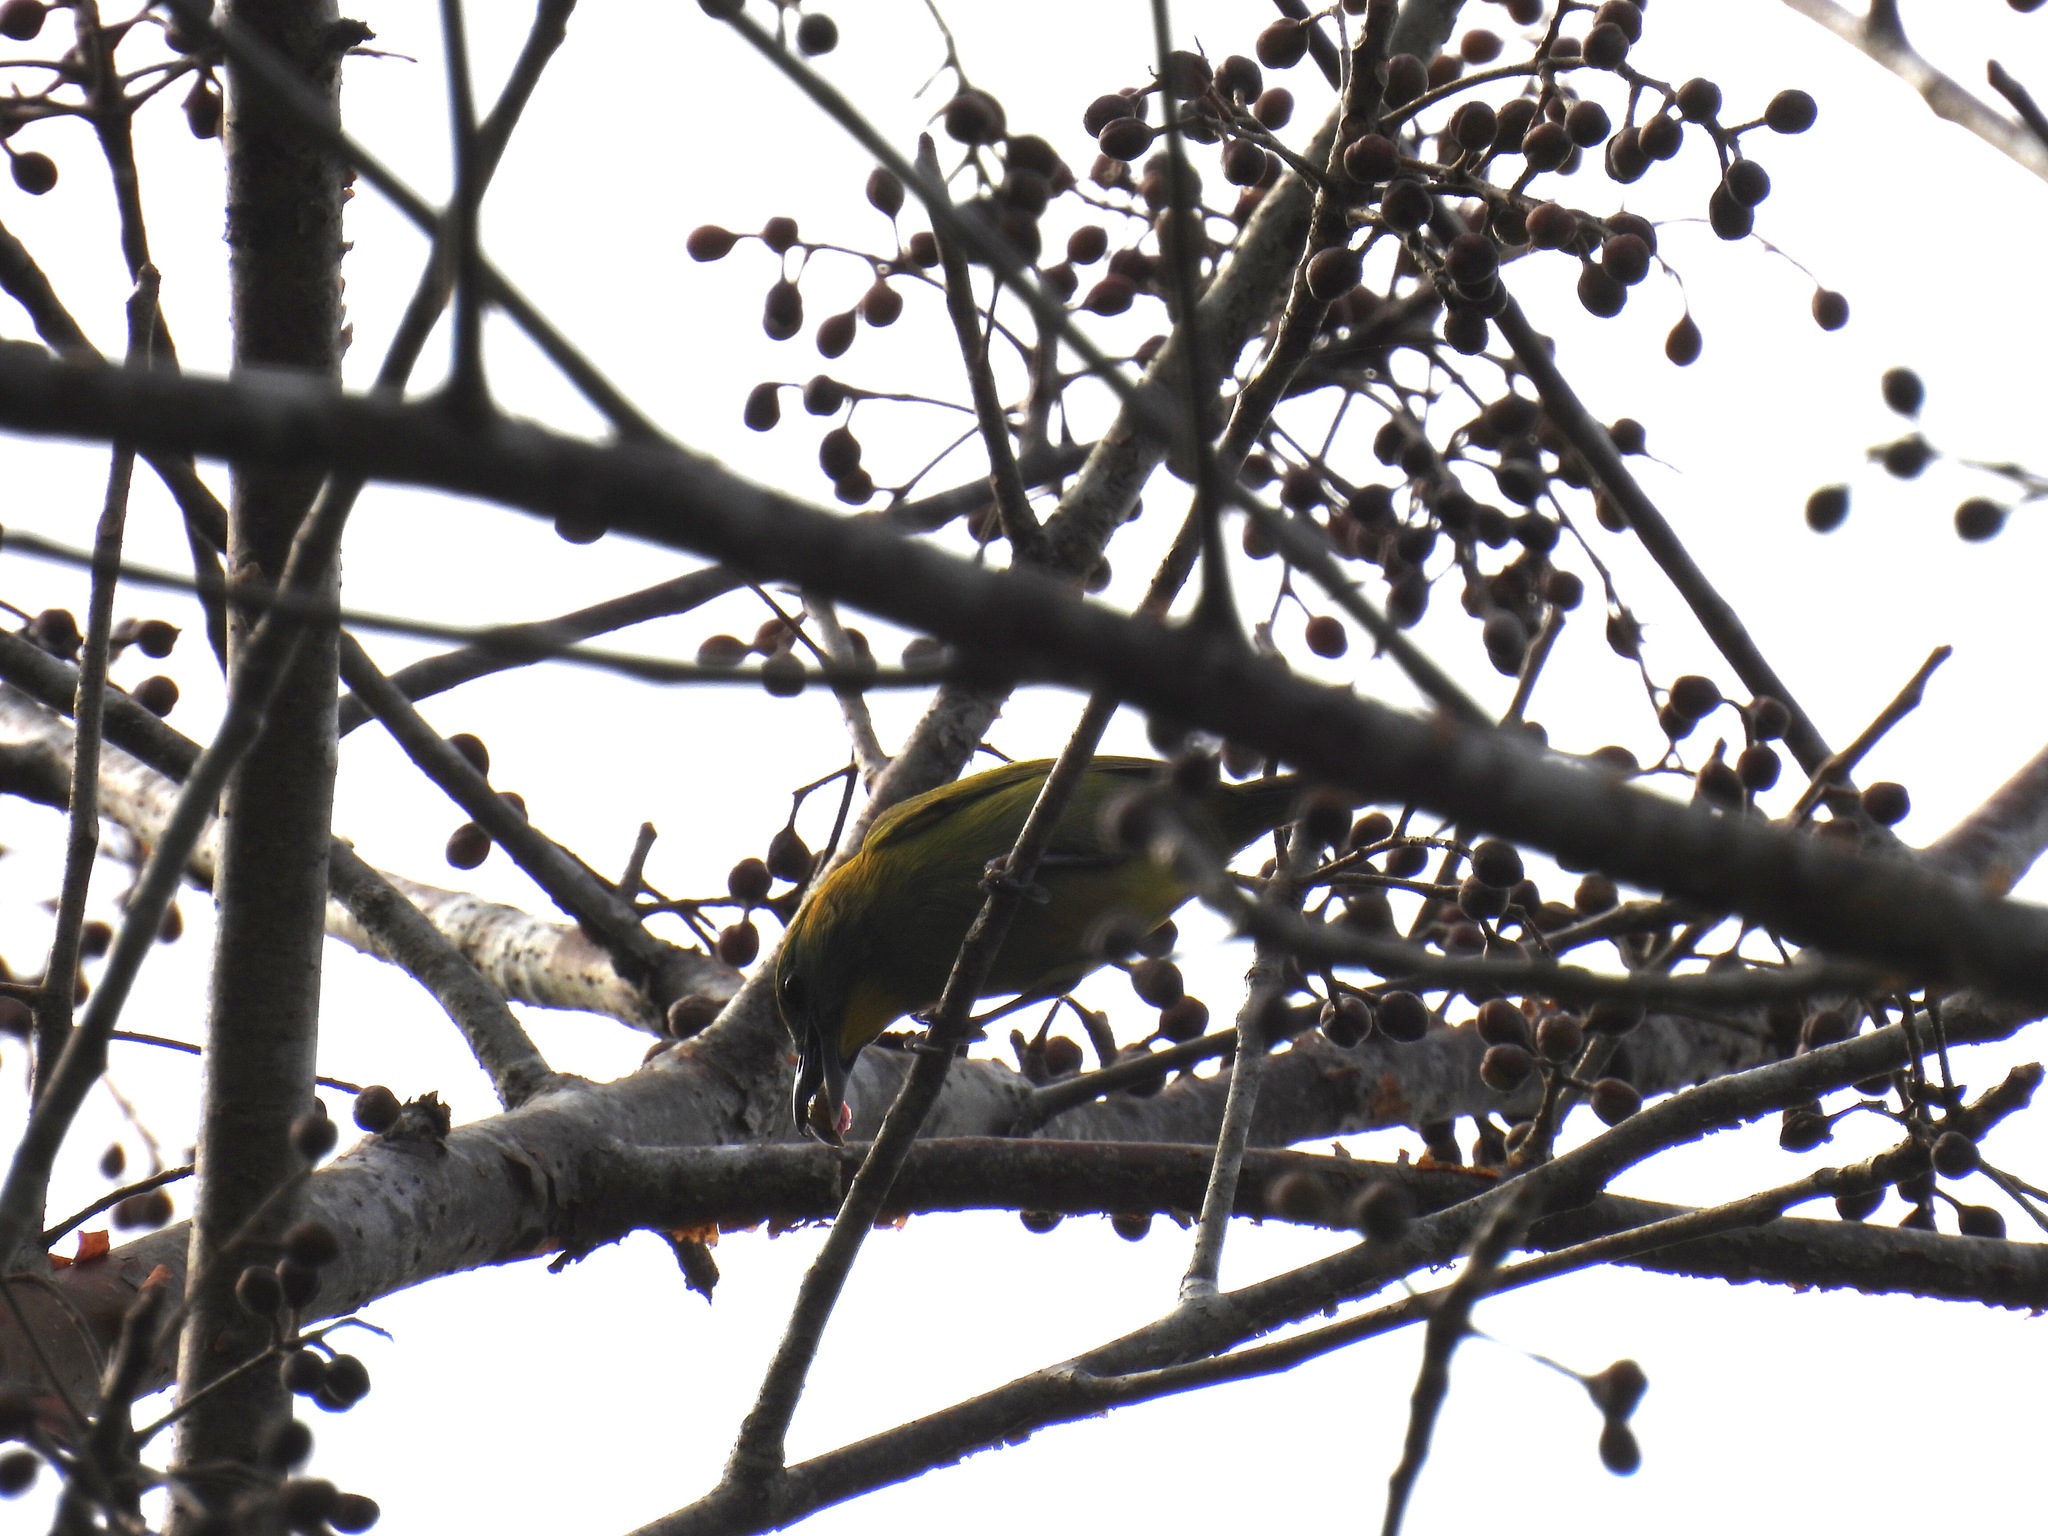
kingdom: Animalia
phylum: Chordata
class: Aves
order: Passeriformes
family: Vireonidae
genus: Vireolanius
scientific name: Vireolanius pulchellus
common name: Green shrike-vireo
